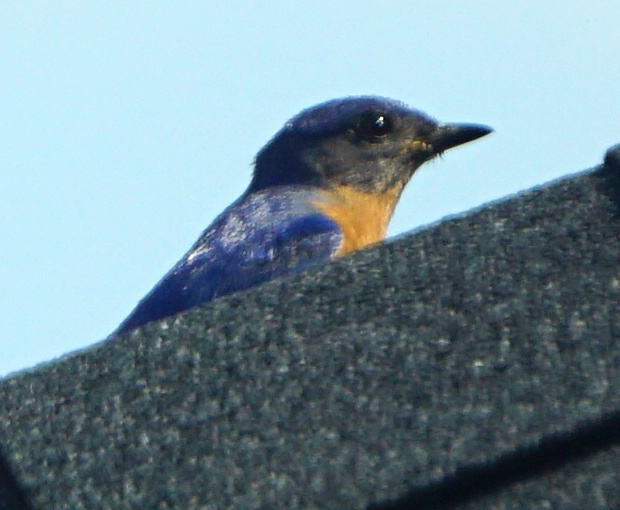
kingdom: Animalia
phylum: Chordata
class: Aves
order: Passeriformes
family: Turdidae
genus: Sialia
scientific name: Sialia sialis
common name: Eastern bluebird
